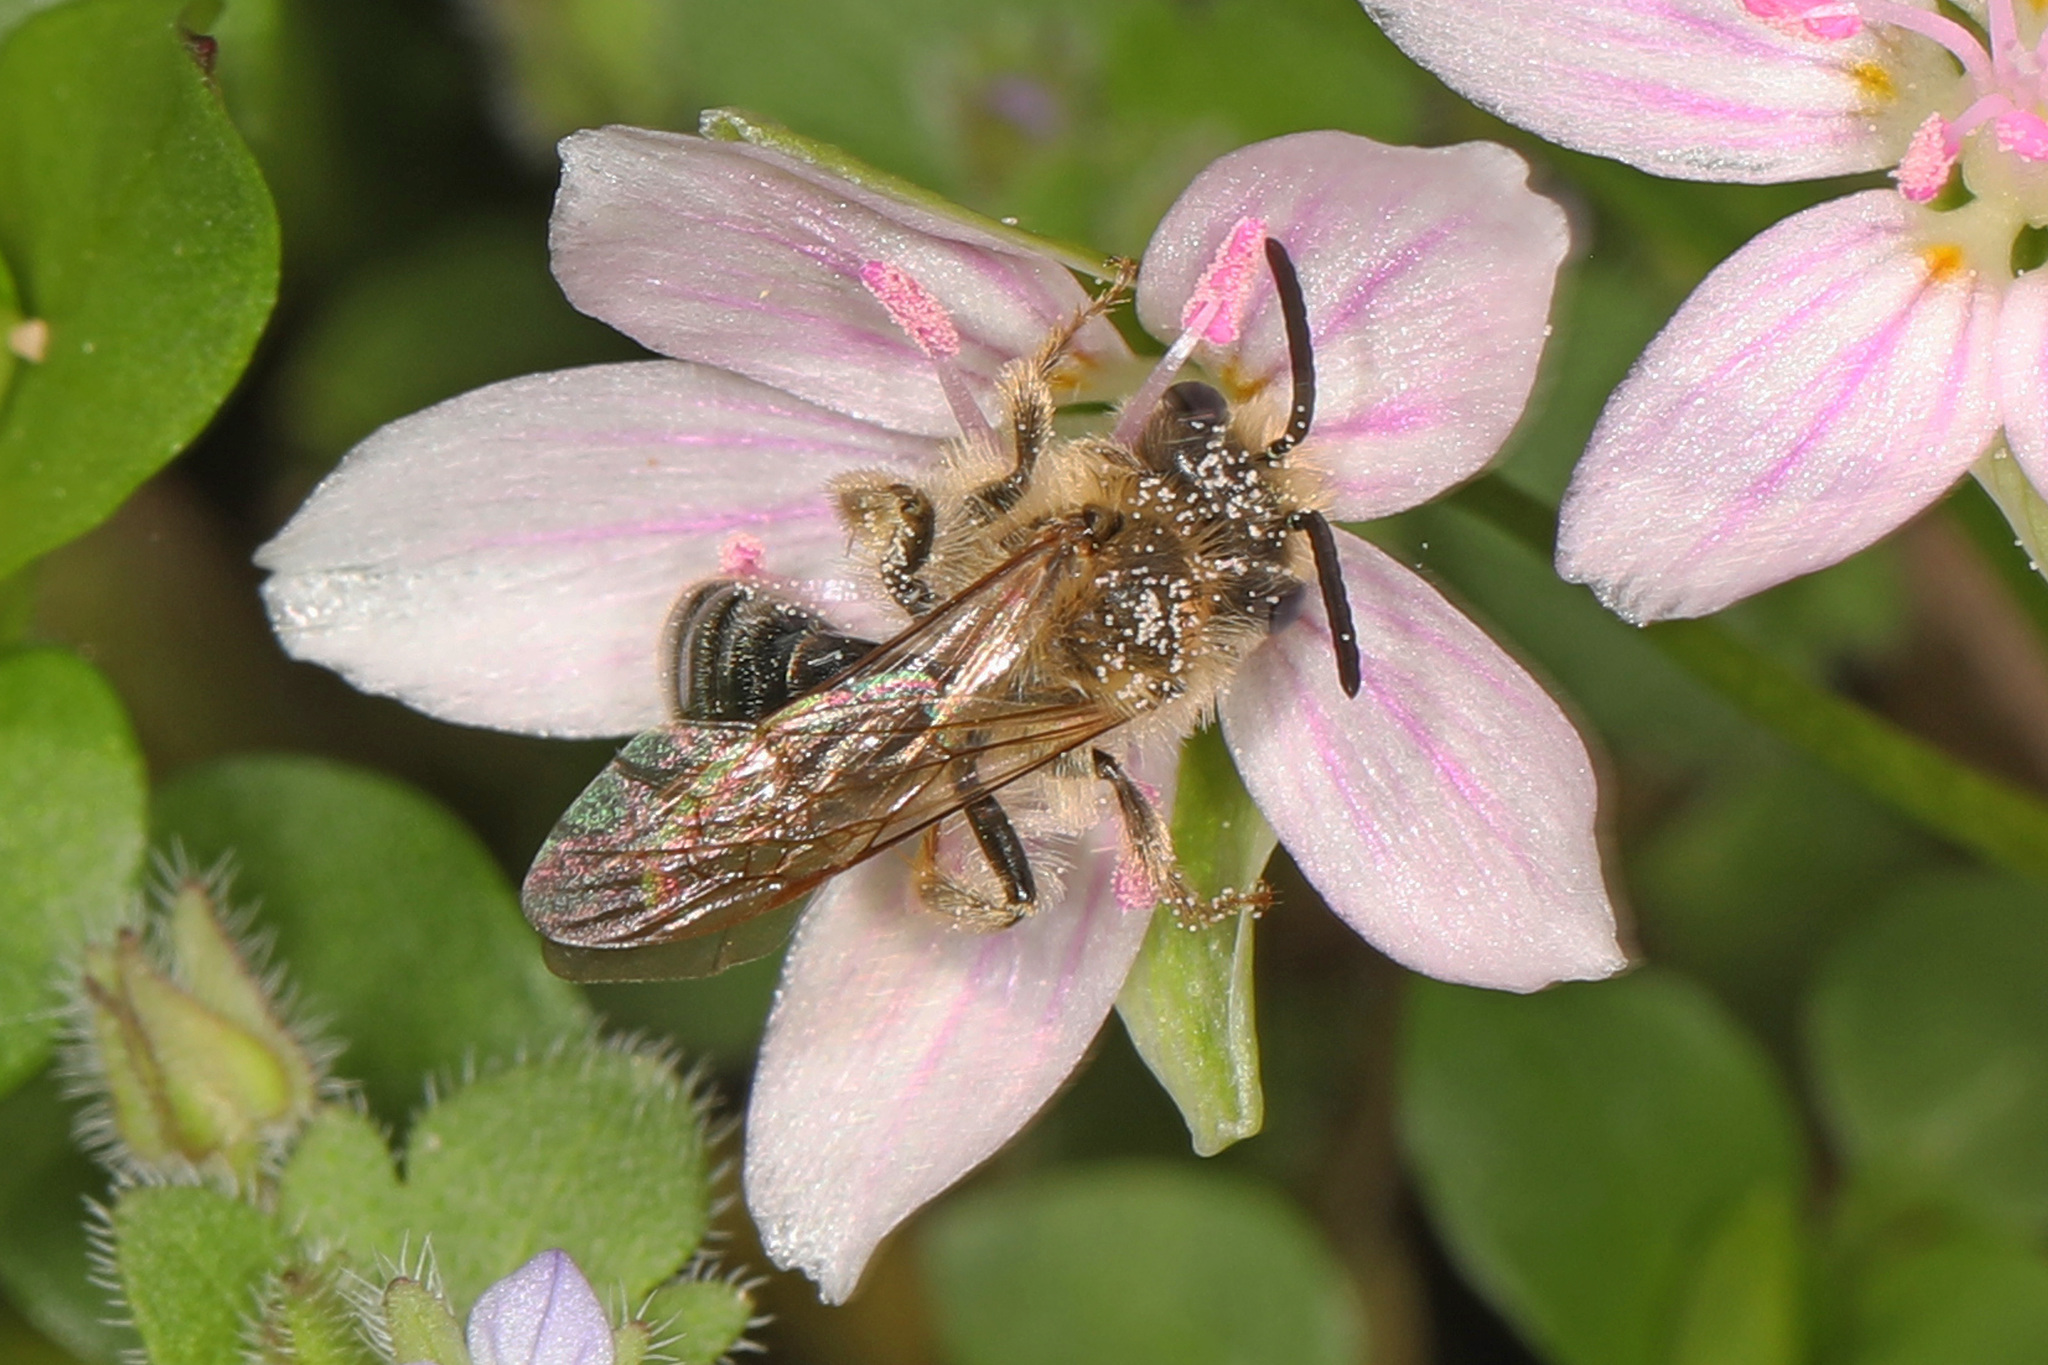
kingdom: Animalia
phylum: Arthropoda
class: Insecta
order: Hymenoptera
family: Andrenidae
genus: Andrena
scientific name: Andrena erigeniae
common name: Spring beauty miner
